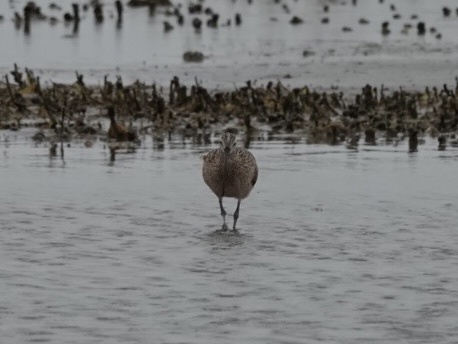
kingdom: Animalia
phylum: Chordata
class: Aves
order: Charadriiformes
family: Scolopacidae
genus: Numenius
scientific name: Numenius americanus
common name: Long-billed curlew
